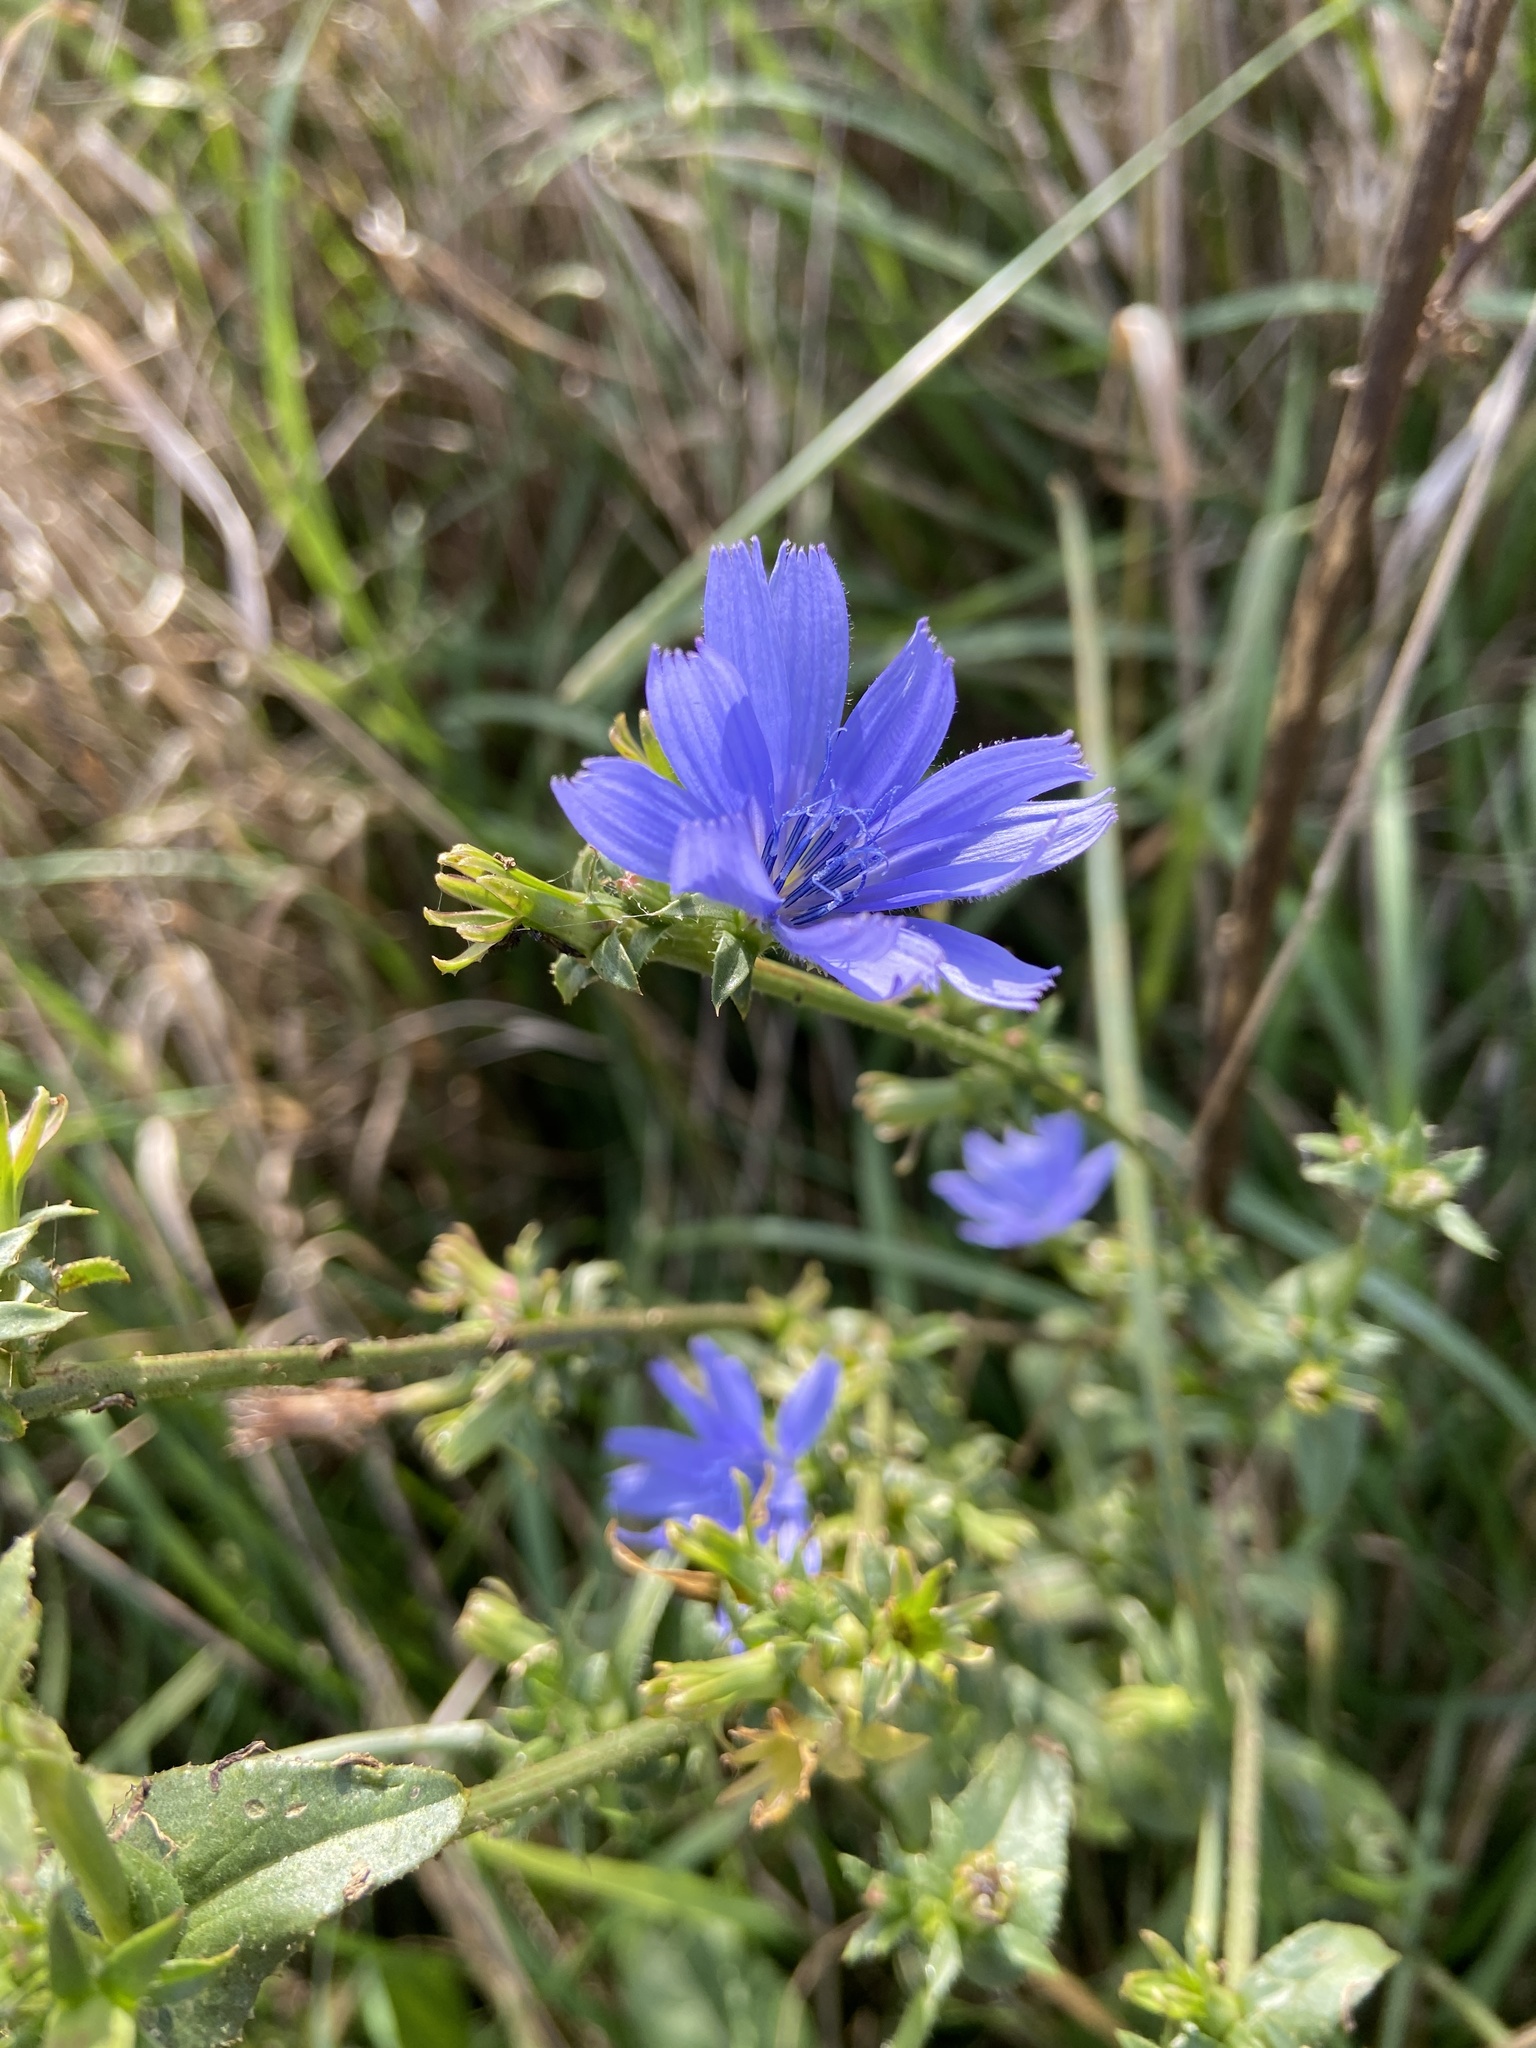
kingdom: Plantae
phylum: Tracheophyta
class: Magnoliopsida
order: Asterales
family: Asteraceae
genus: Cichorium
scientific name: Cichorium intybus
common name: Chicory
